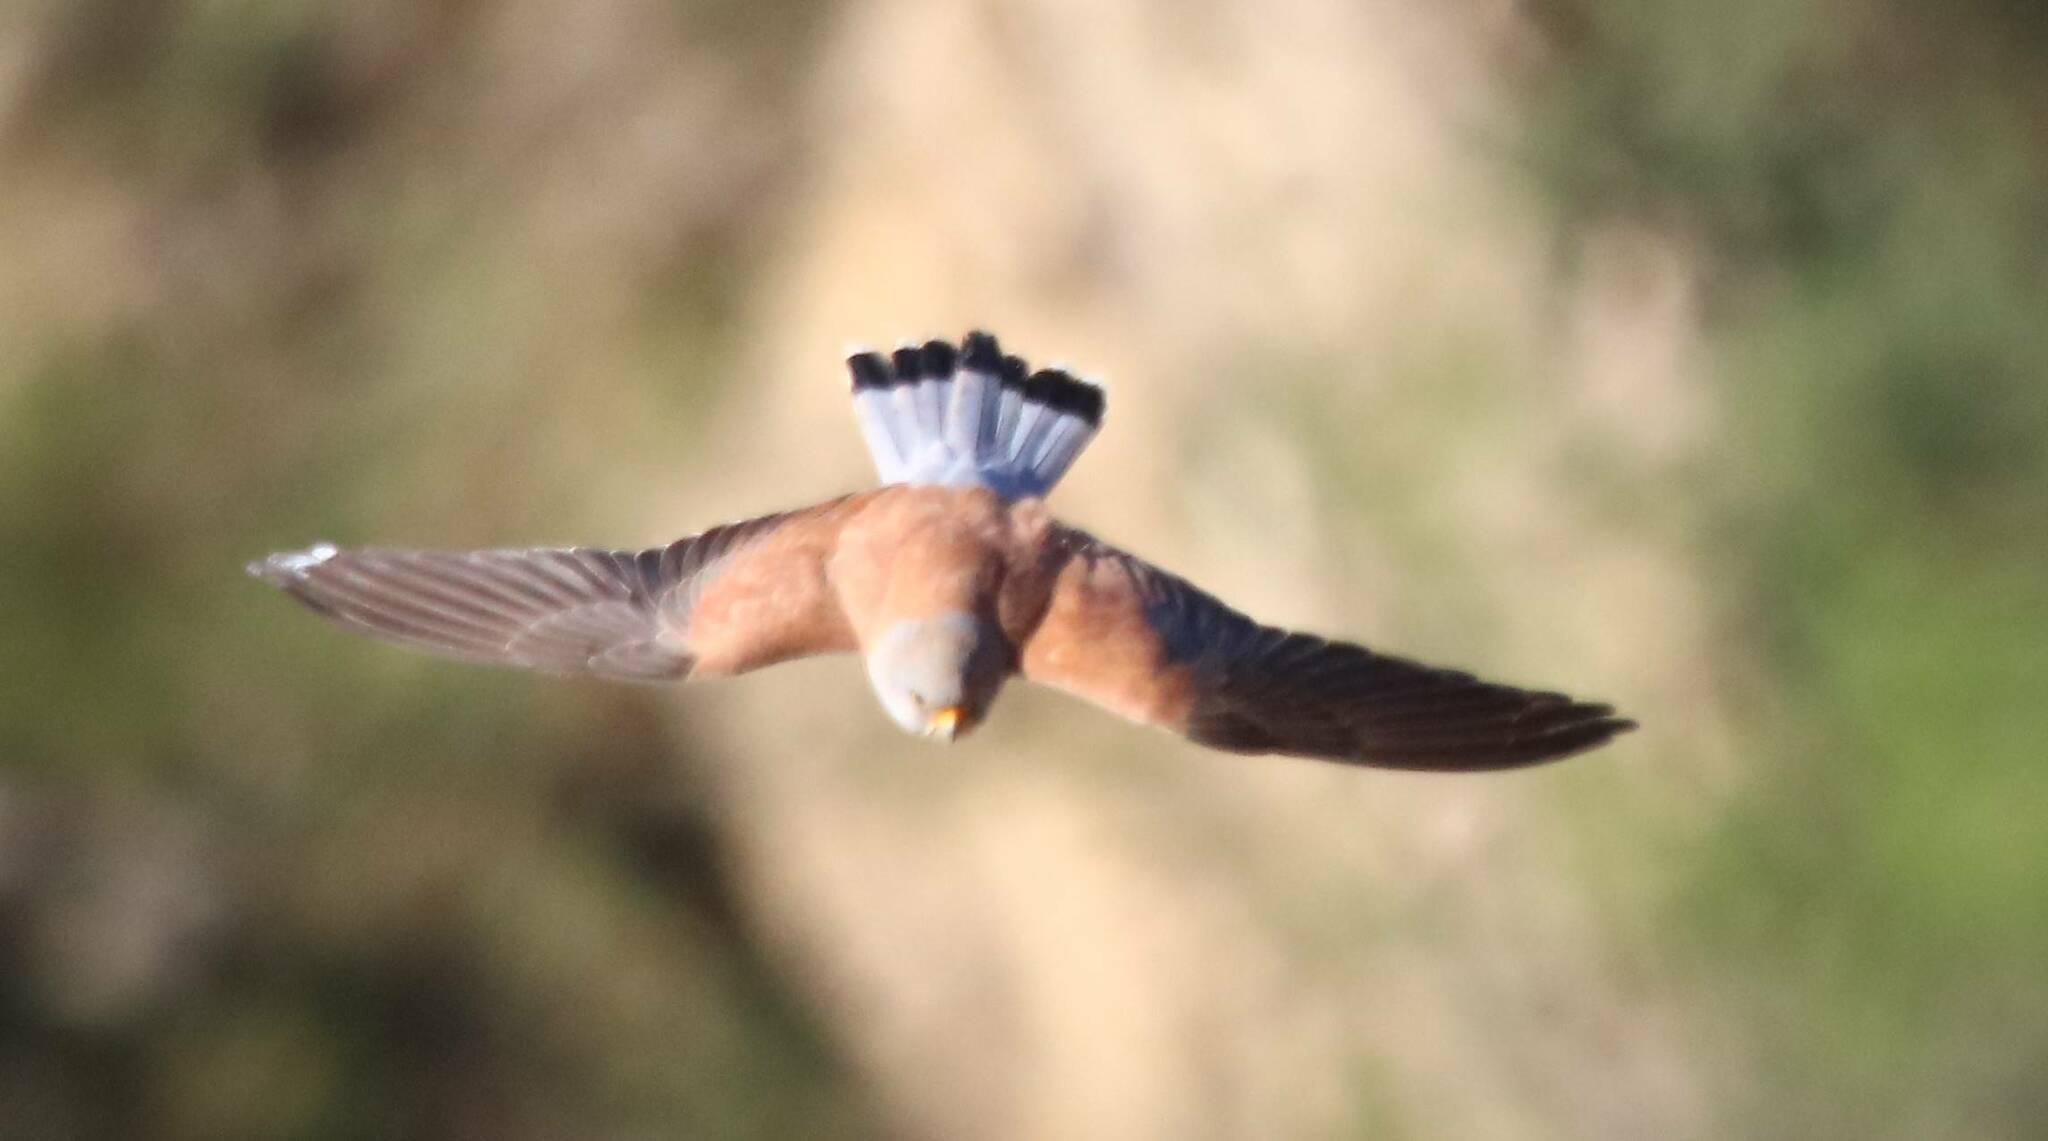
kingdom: Animalia
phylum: Chordata
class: Aves
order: Falconiformes
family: Falconidae
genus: Falco
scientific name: Falco naumanni
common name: Lesser kestrel
